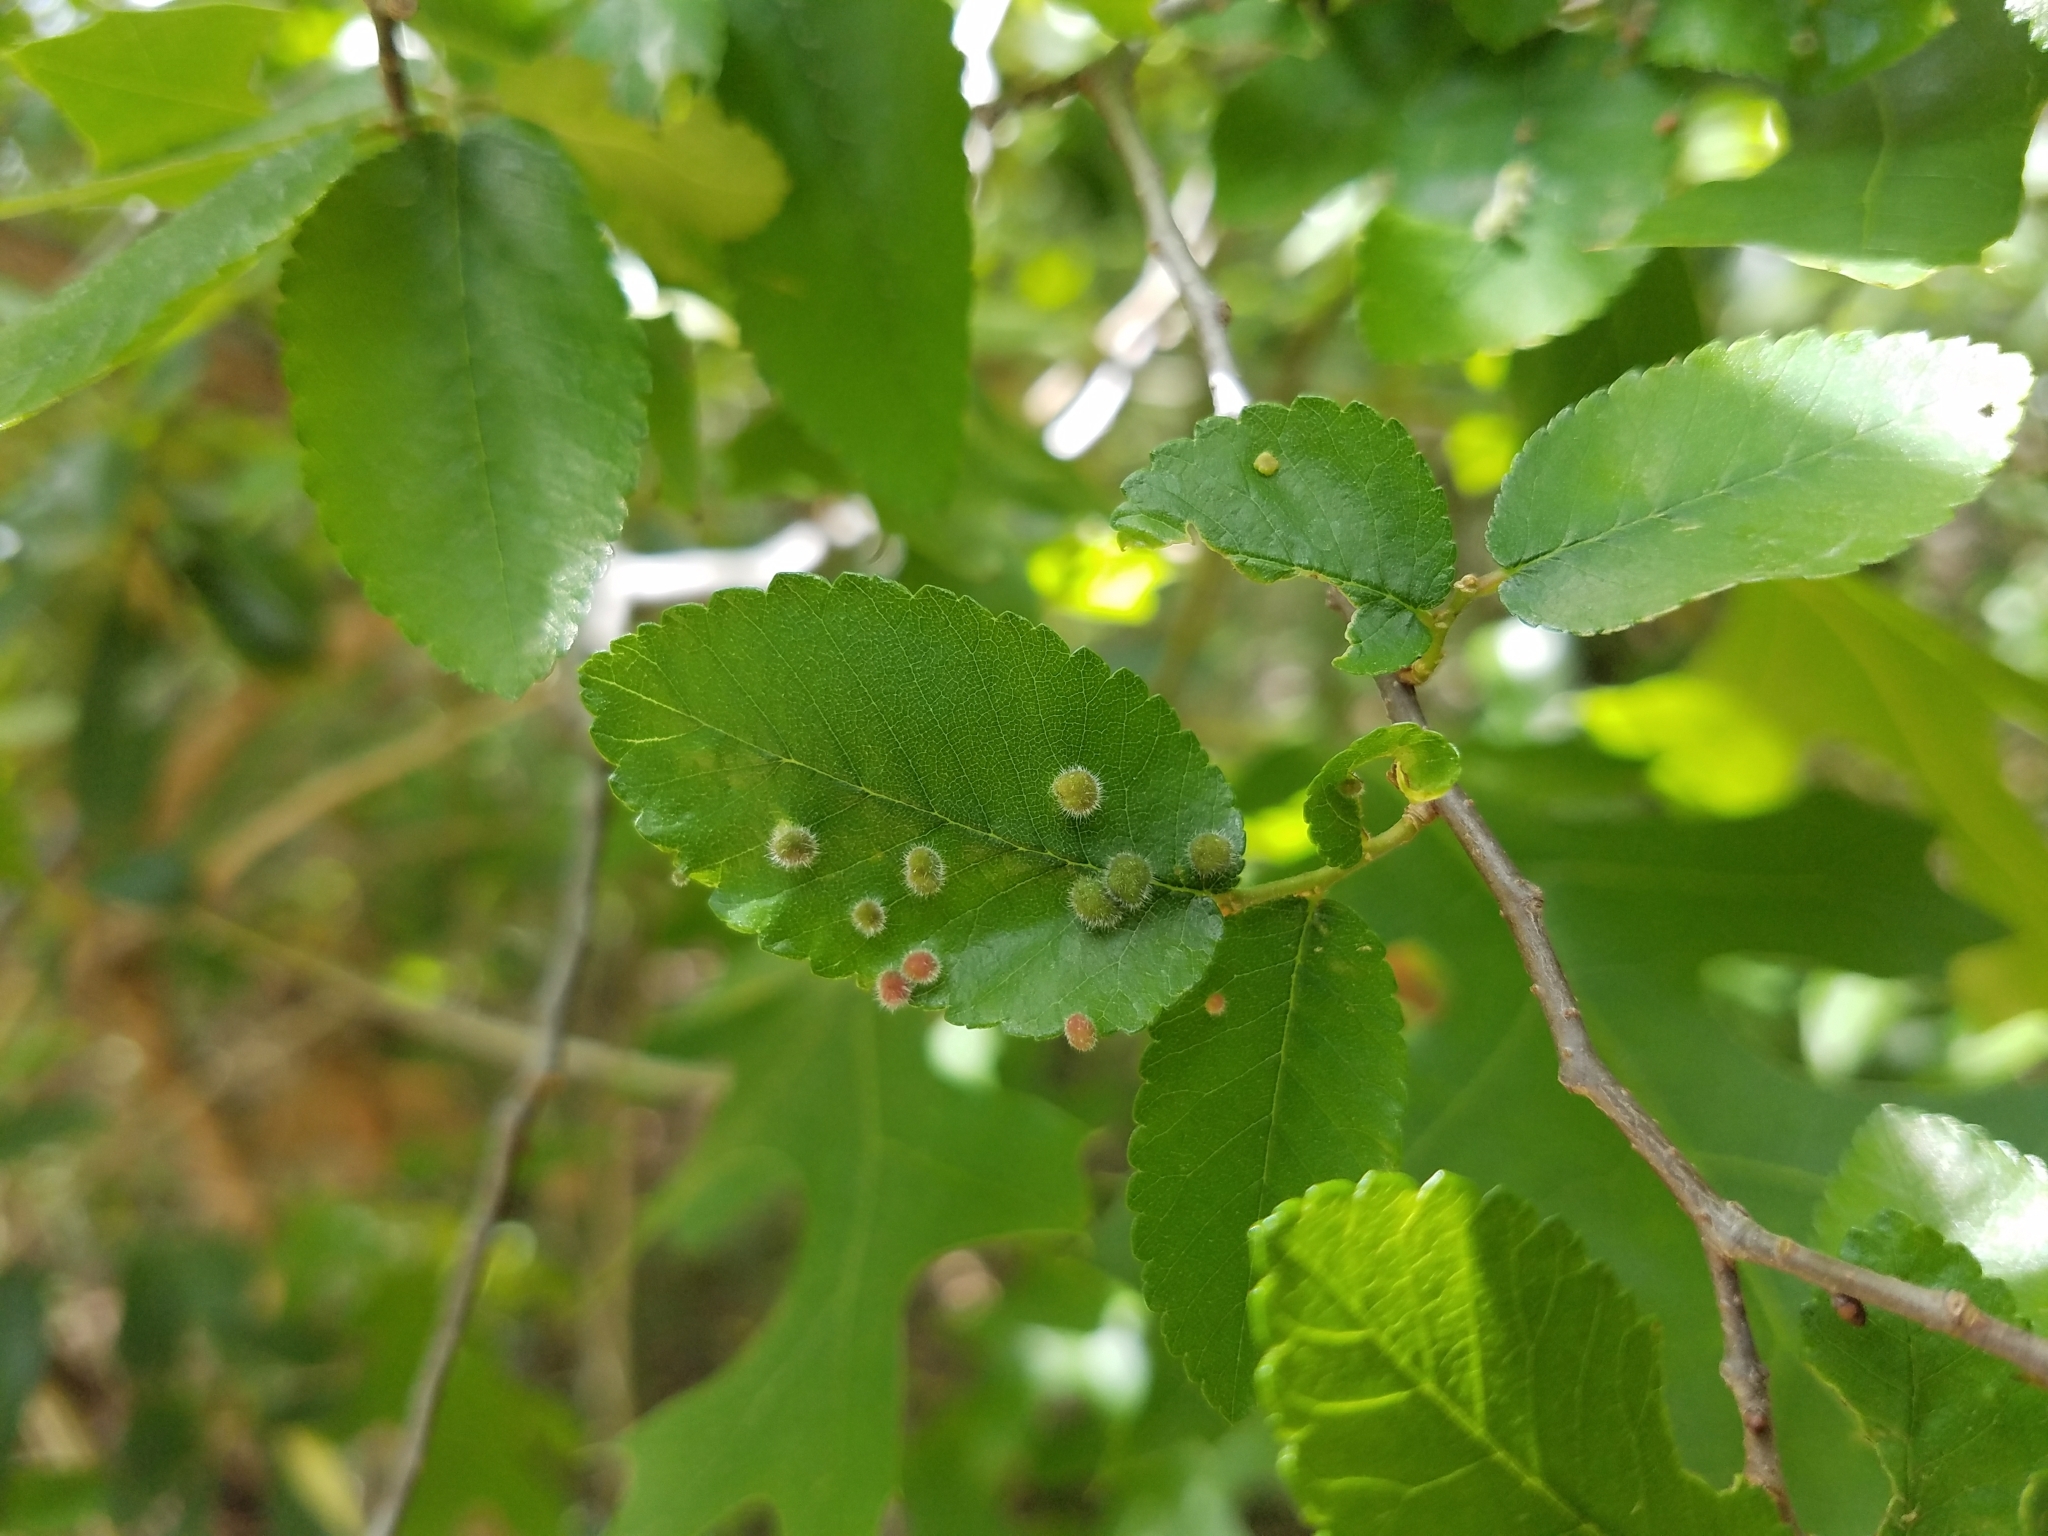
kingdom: Plantae
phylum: Tracheophyta
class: Magnoliopsida
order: Rosales
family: Ulmaceae
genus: Ulmus
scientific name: Ulmus crassifolia
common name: Basket elm
